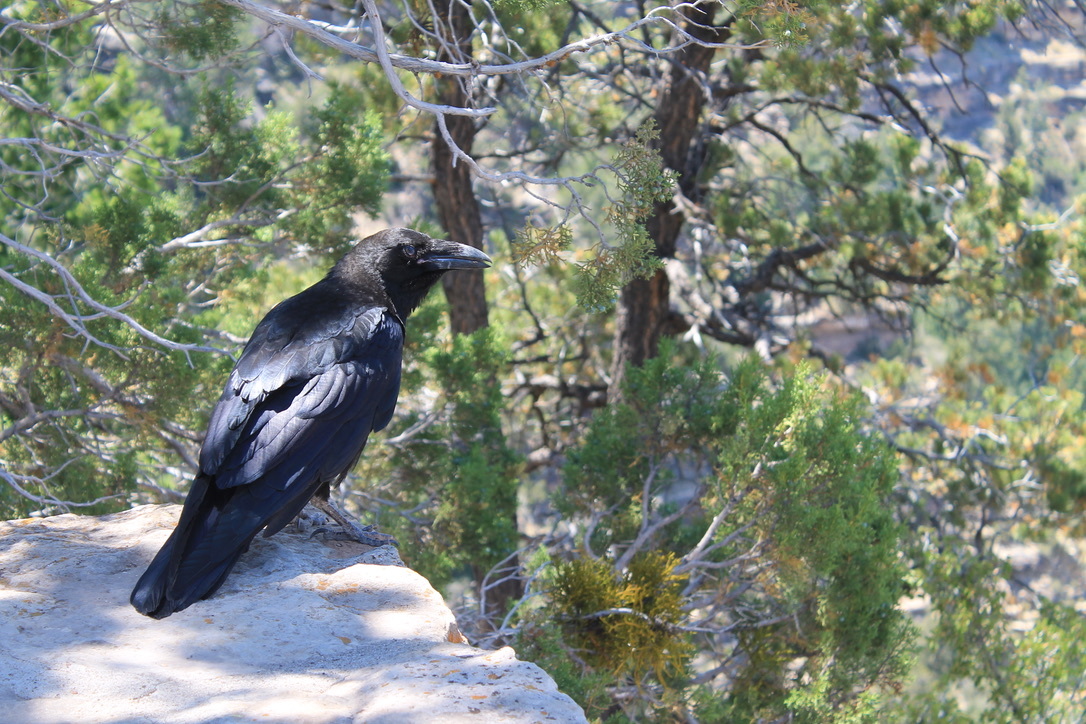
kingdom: Animalia
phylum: Chordata
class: Aves
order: Passeriformes
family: Corvidae
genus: Corvus
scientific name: Corvus corax
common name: Common raven
